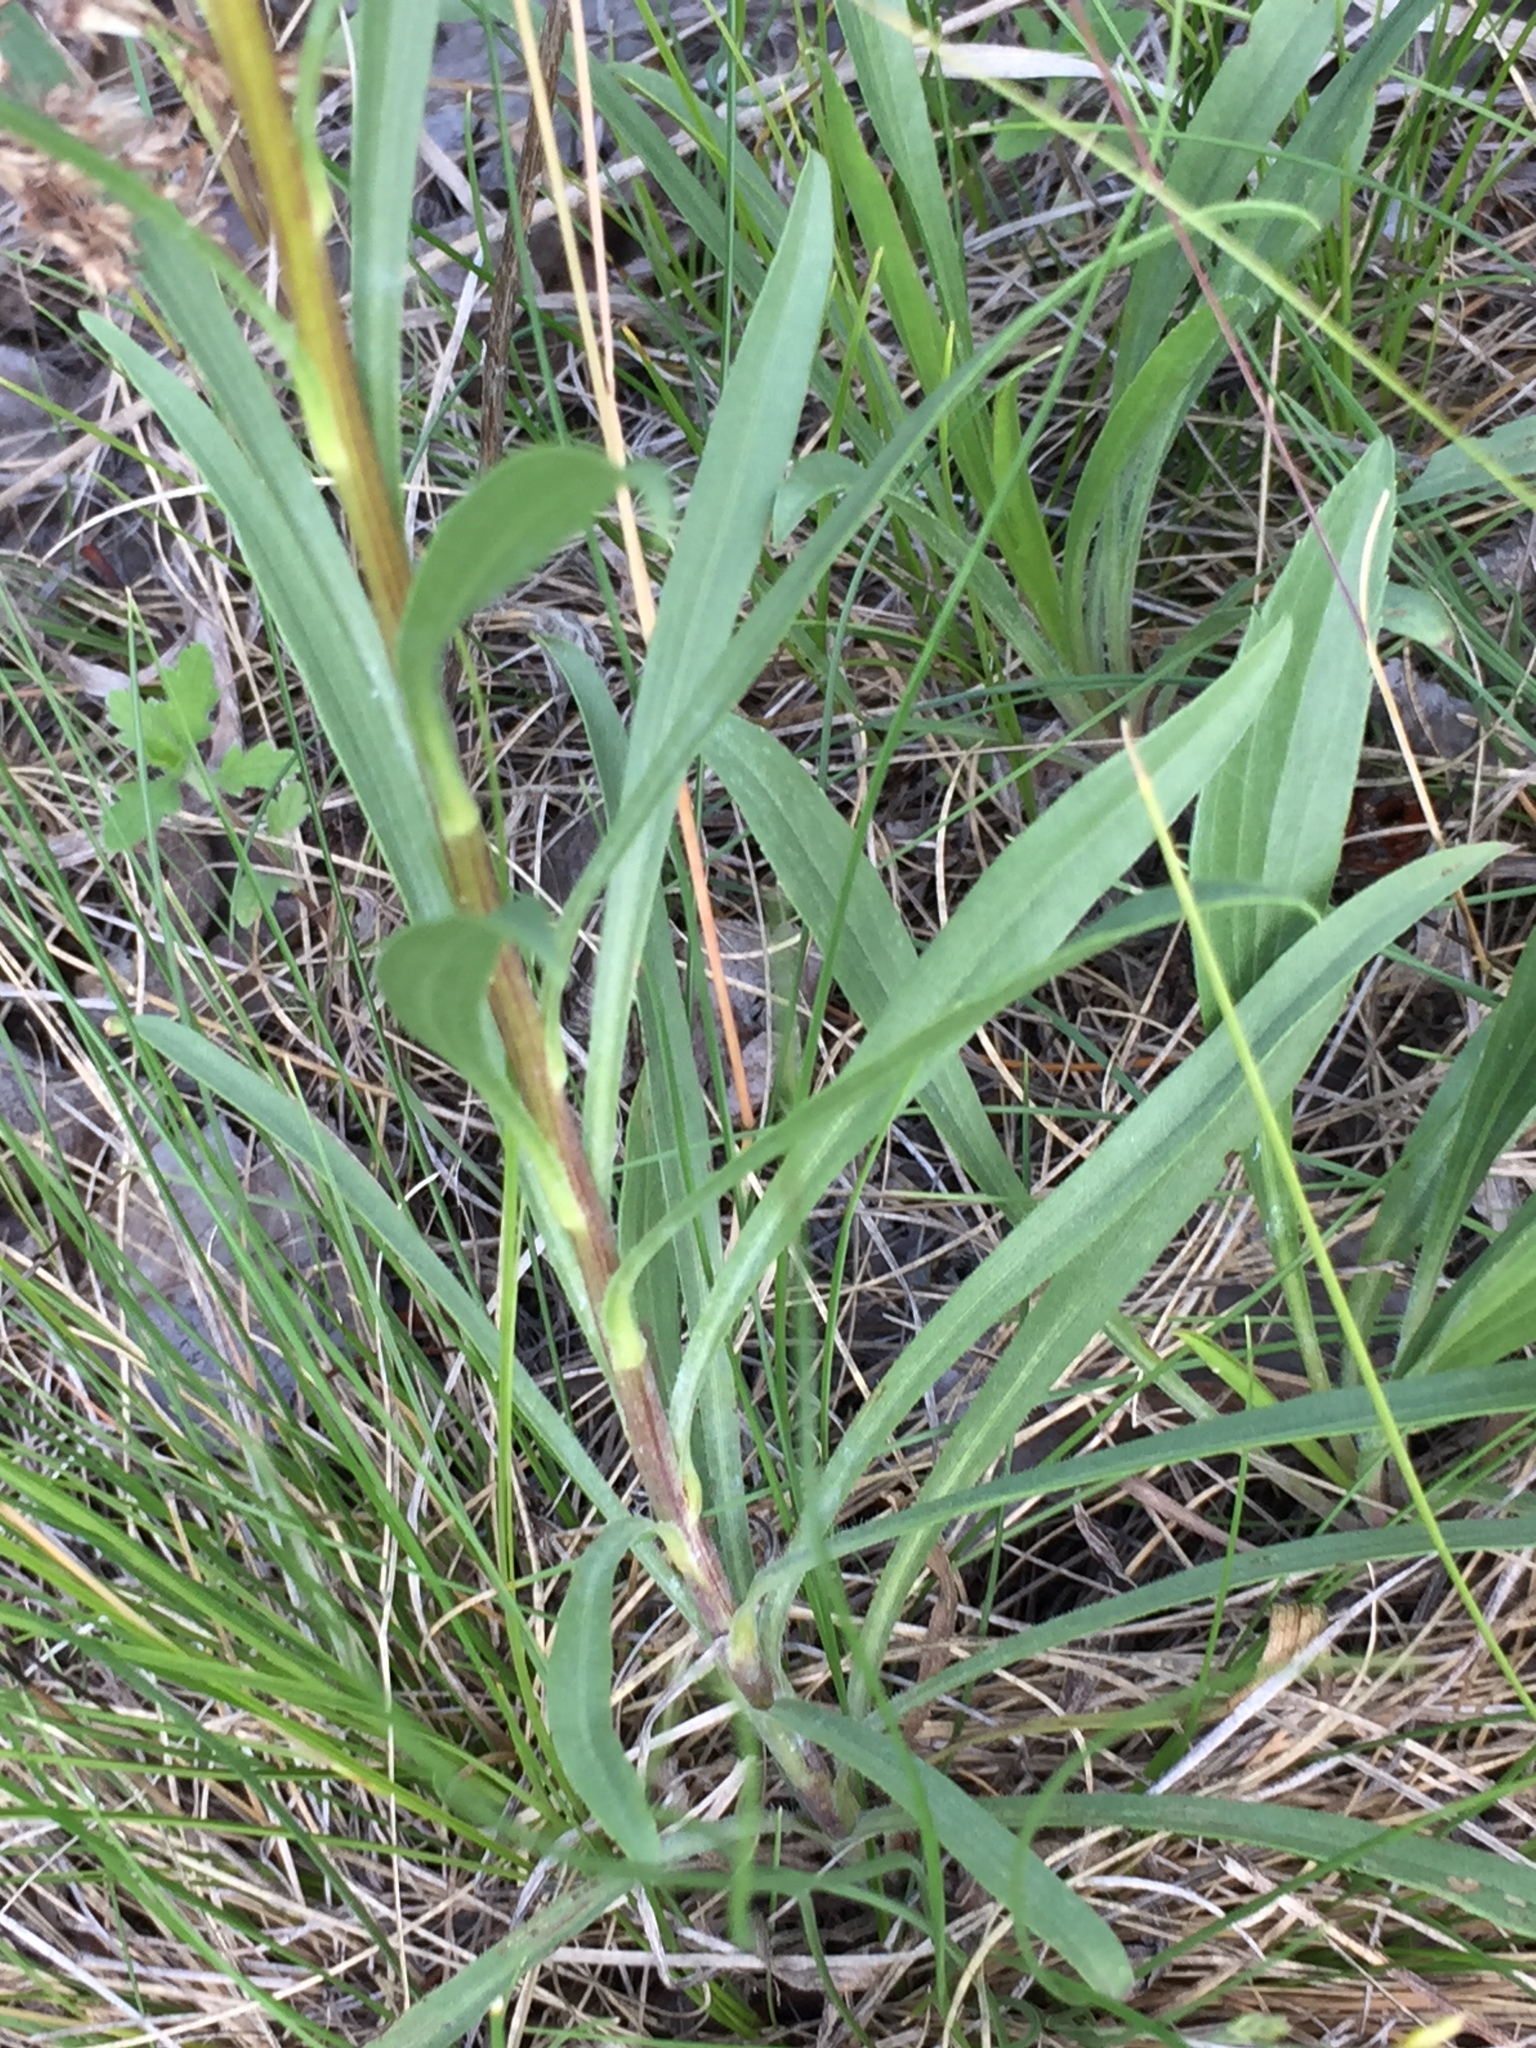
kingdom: Plantae
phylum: Tracheophyta
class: Magnoliopsida
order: Asterales
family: Asteraceae
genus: Solidago
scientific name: Solidago missouriensis
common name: Prairie goldenrod
